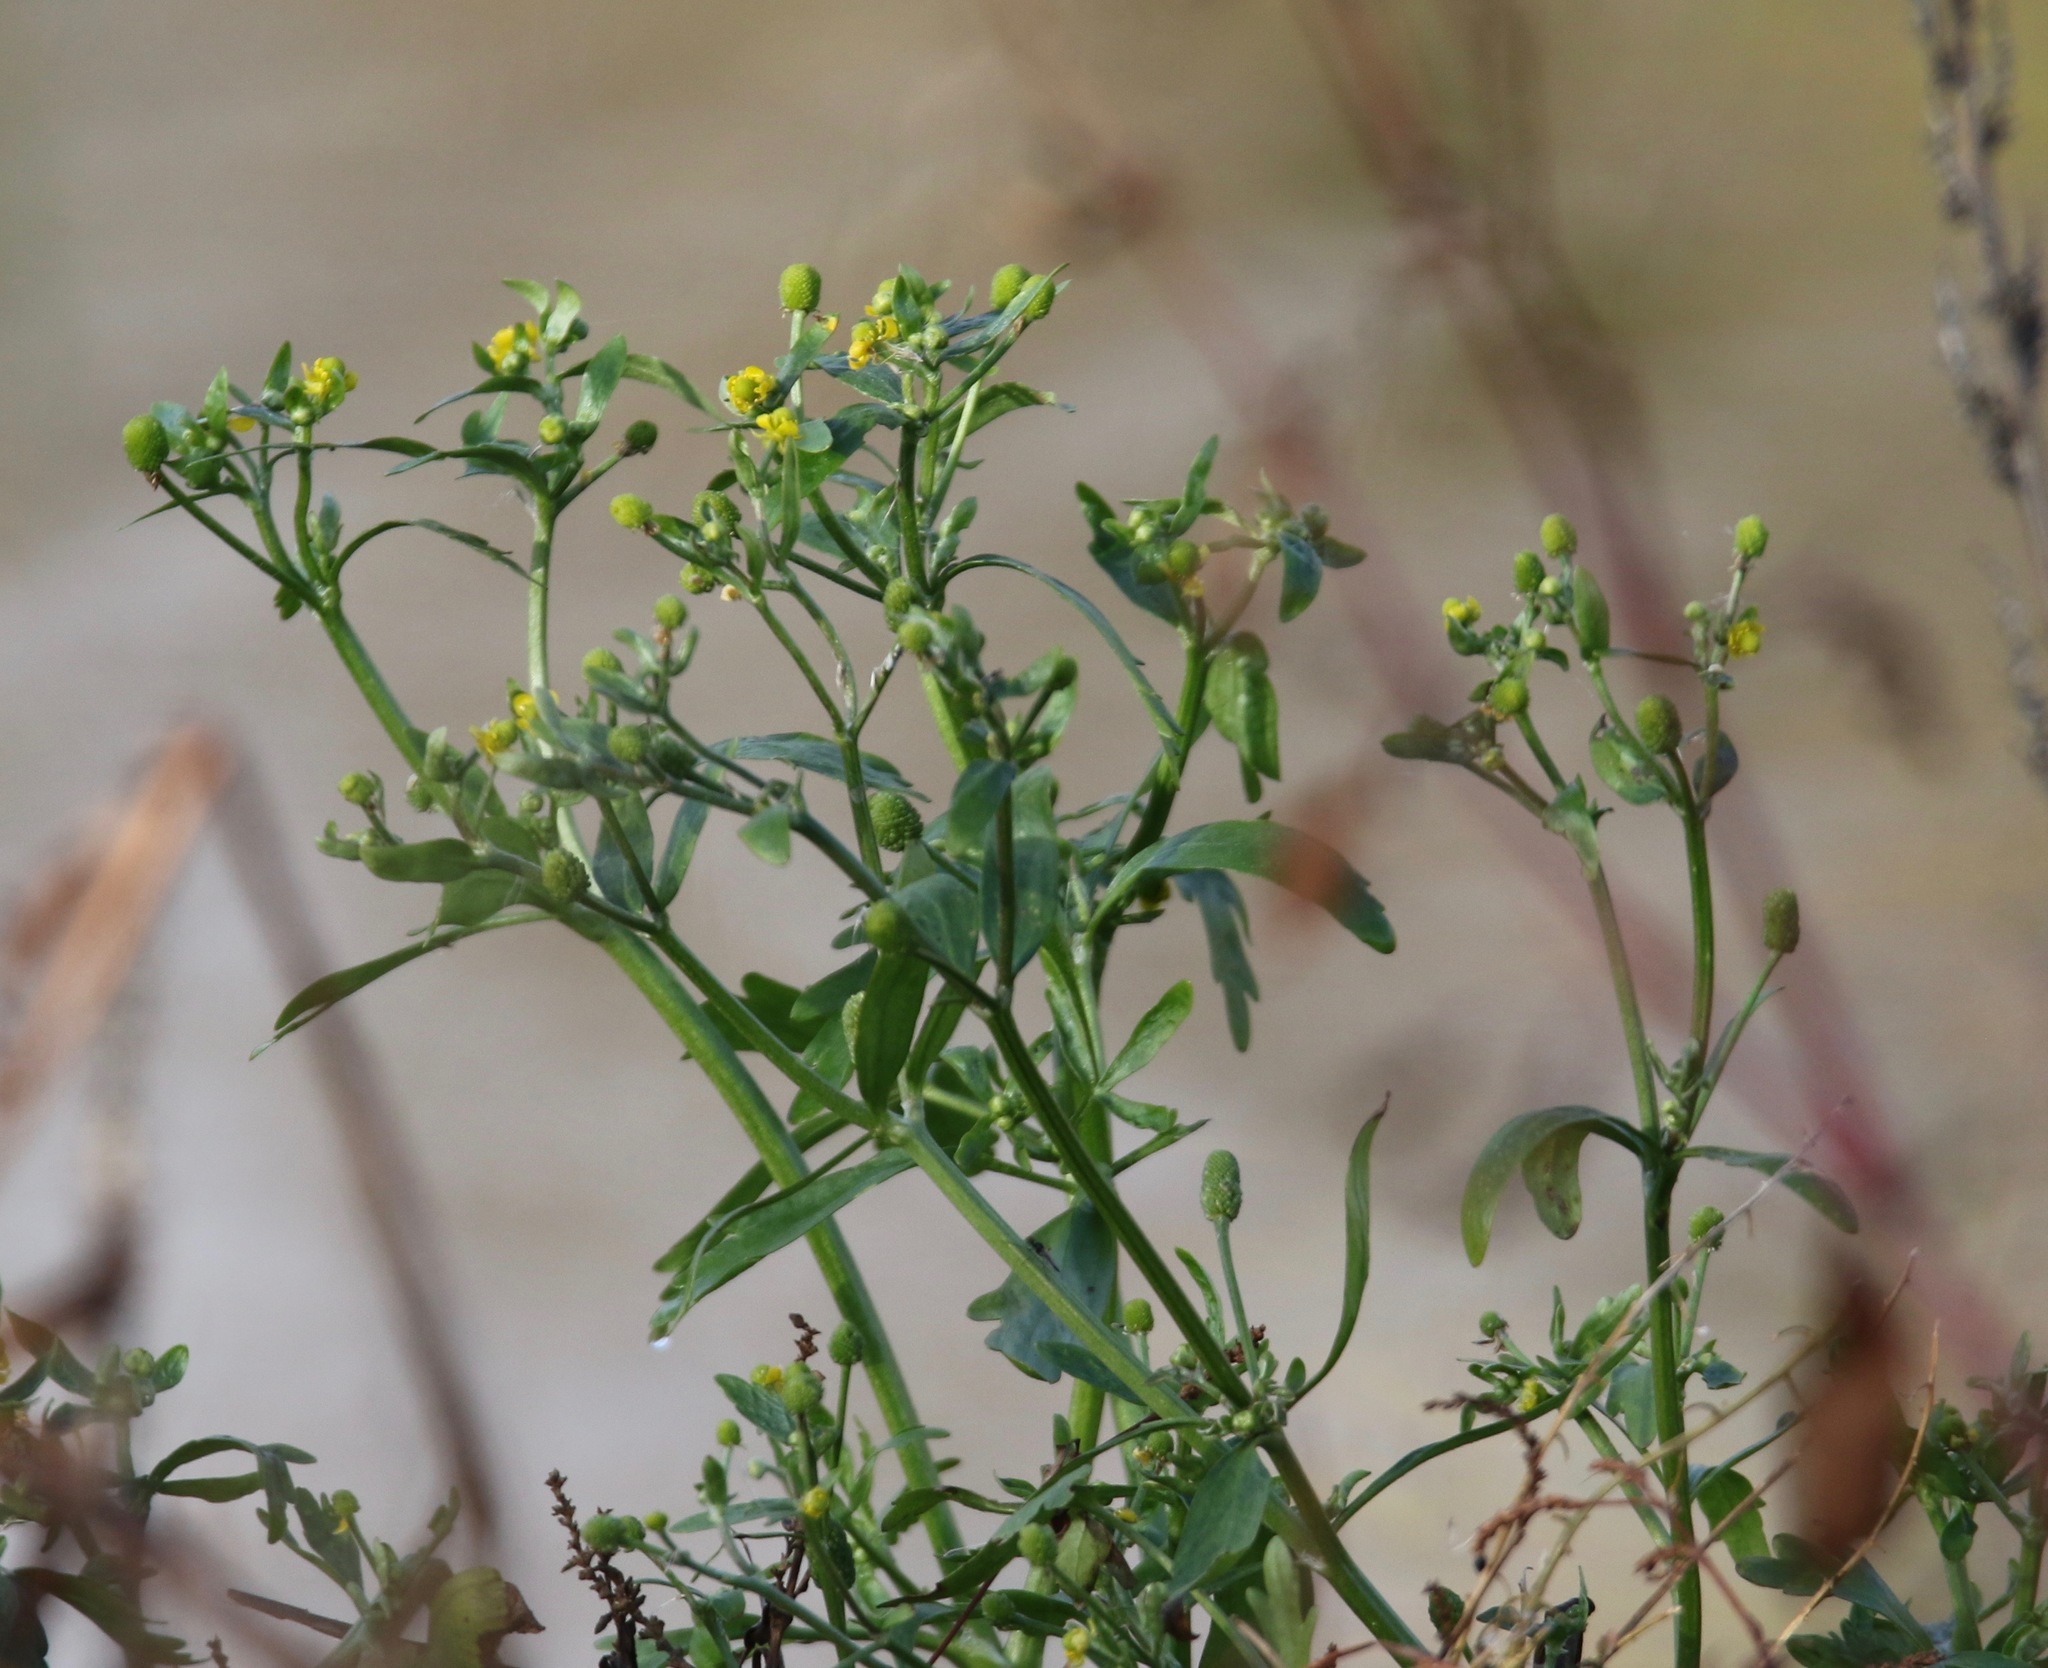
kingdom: Plantae
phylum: Tracheophyta
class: Magnoliopsida
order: Ranunculales
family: Ranunculaceae
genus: Ranunculus
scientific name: Ranunculus sceleratus
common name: Celery-leaved buttercup
